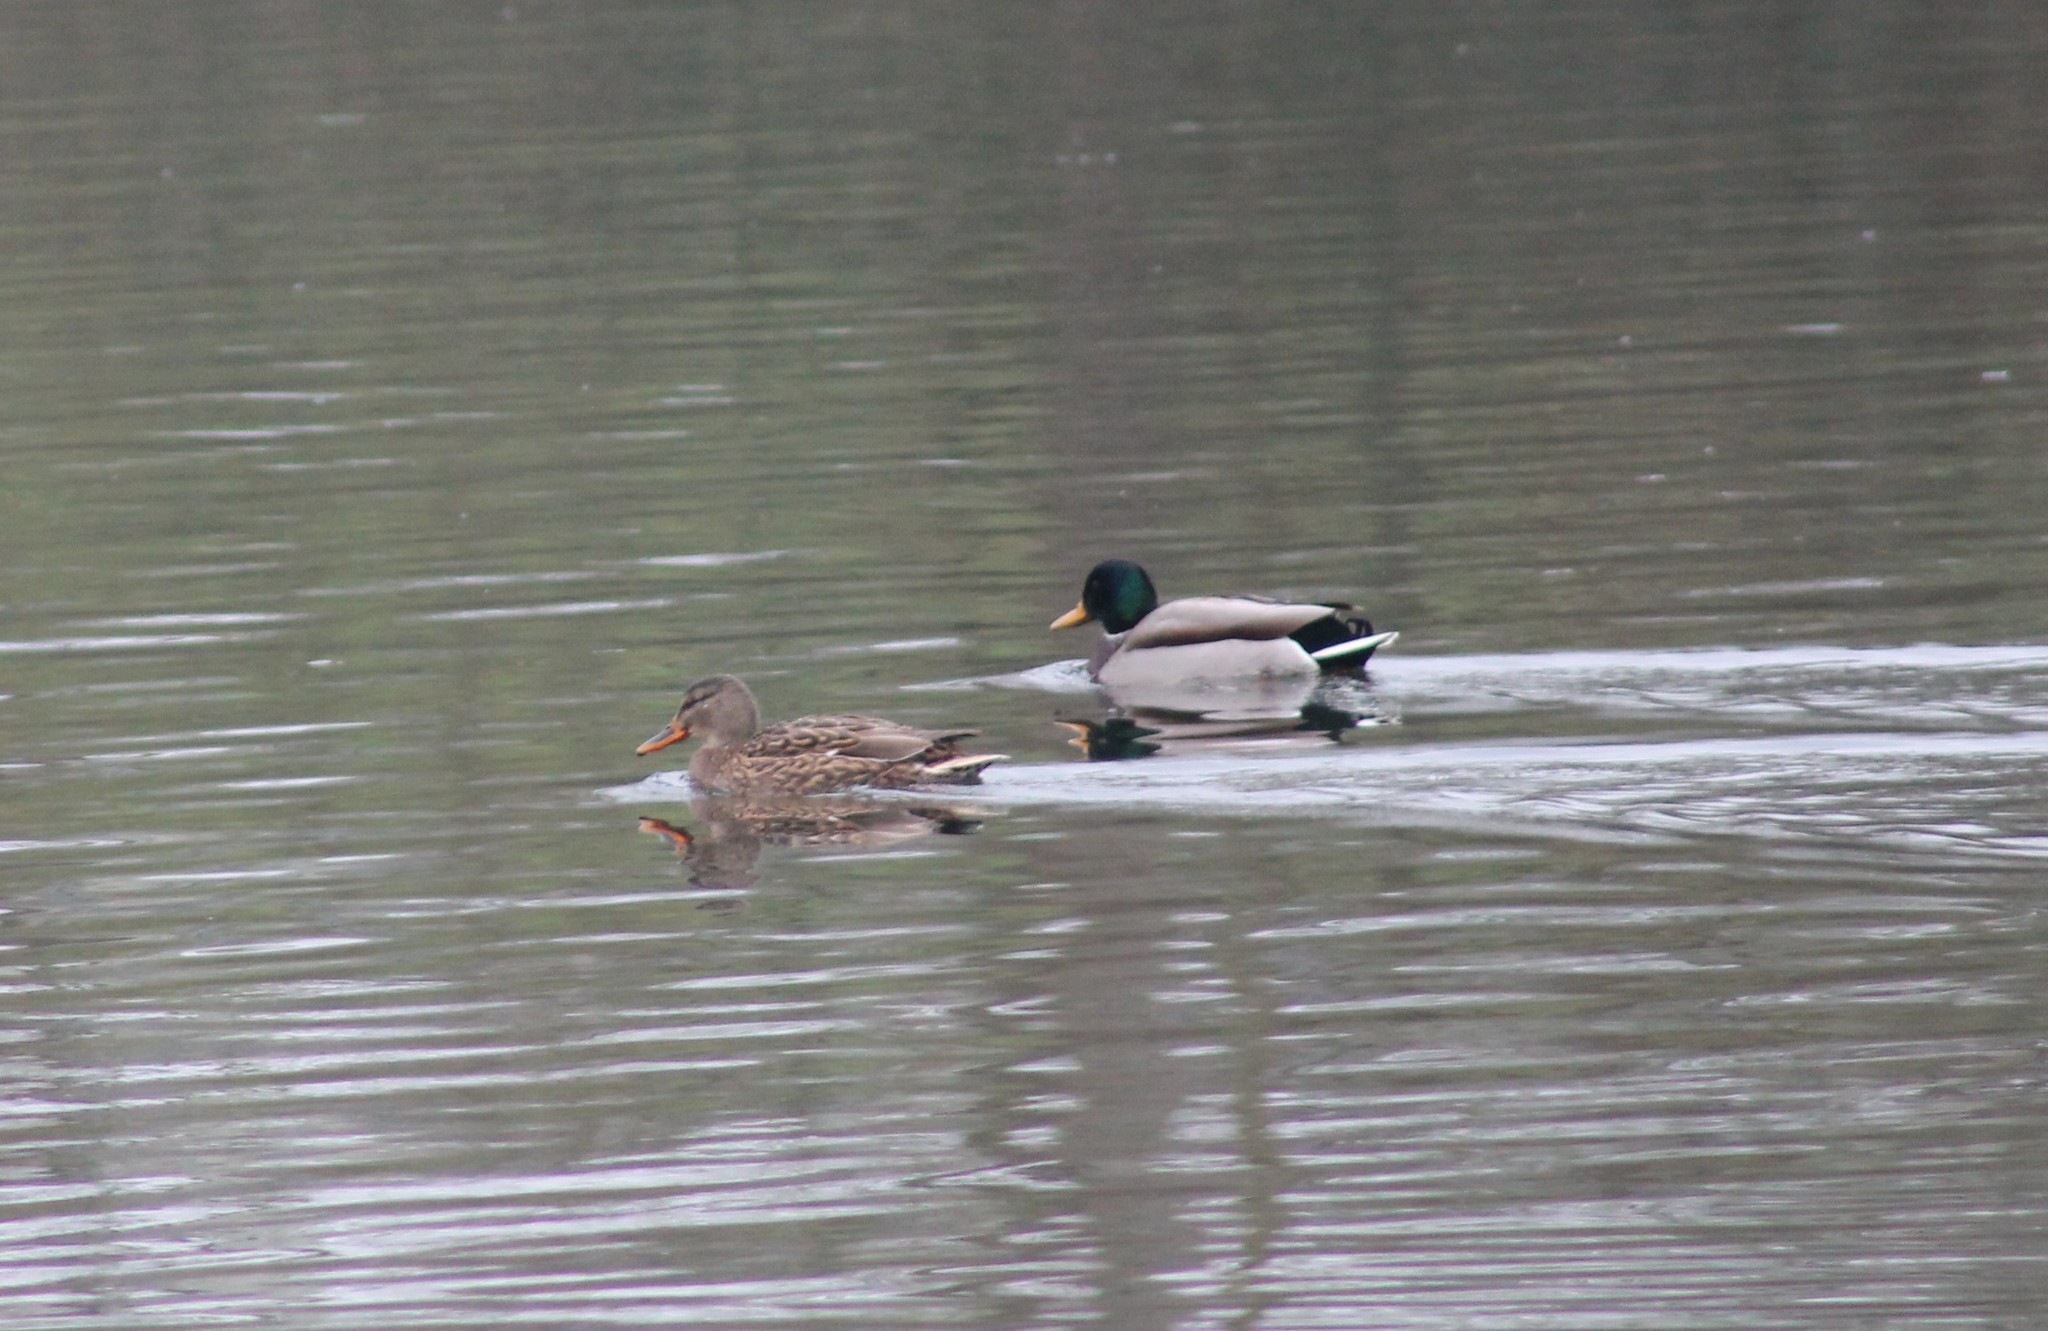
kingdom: Animalia
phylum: Chordata
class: Aves
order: Anseriformes
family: Anatidae
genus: Anas
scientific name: Anas platyrhynchos
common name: Mallard
